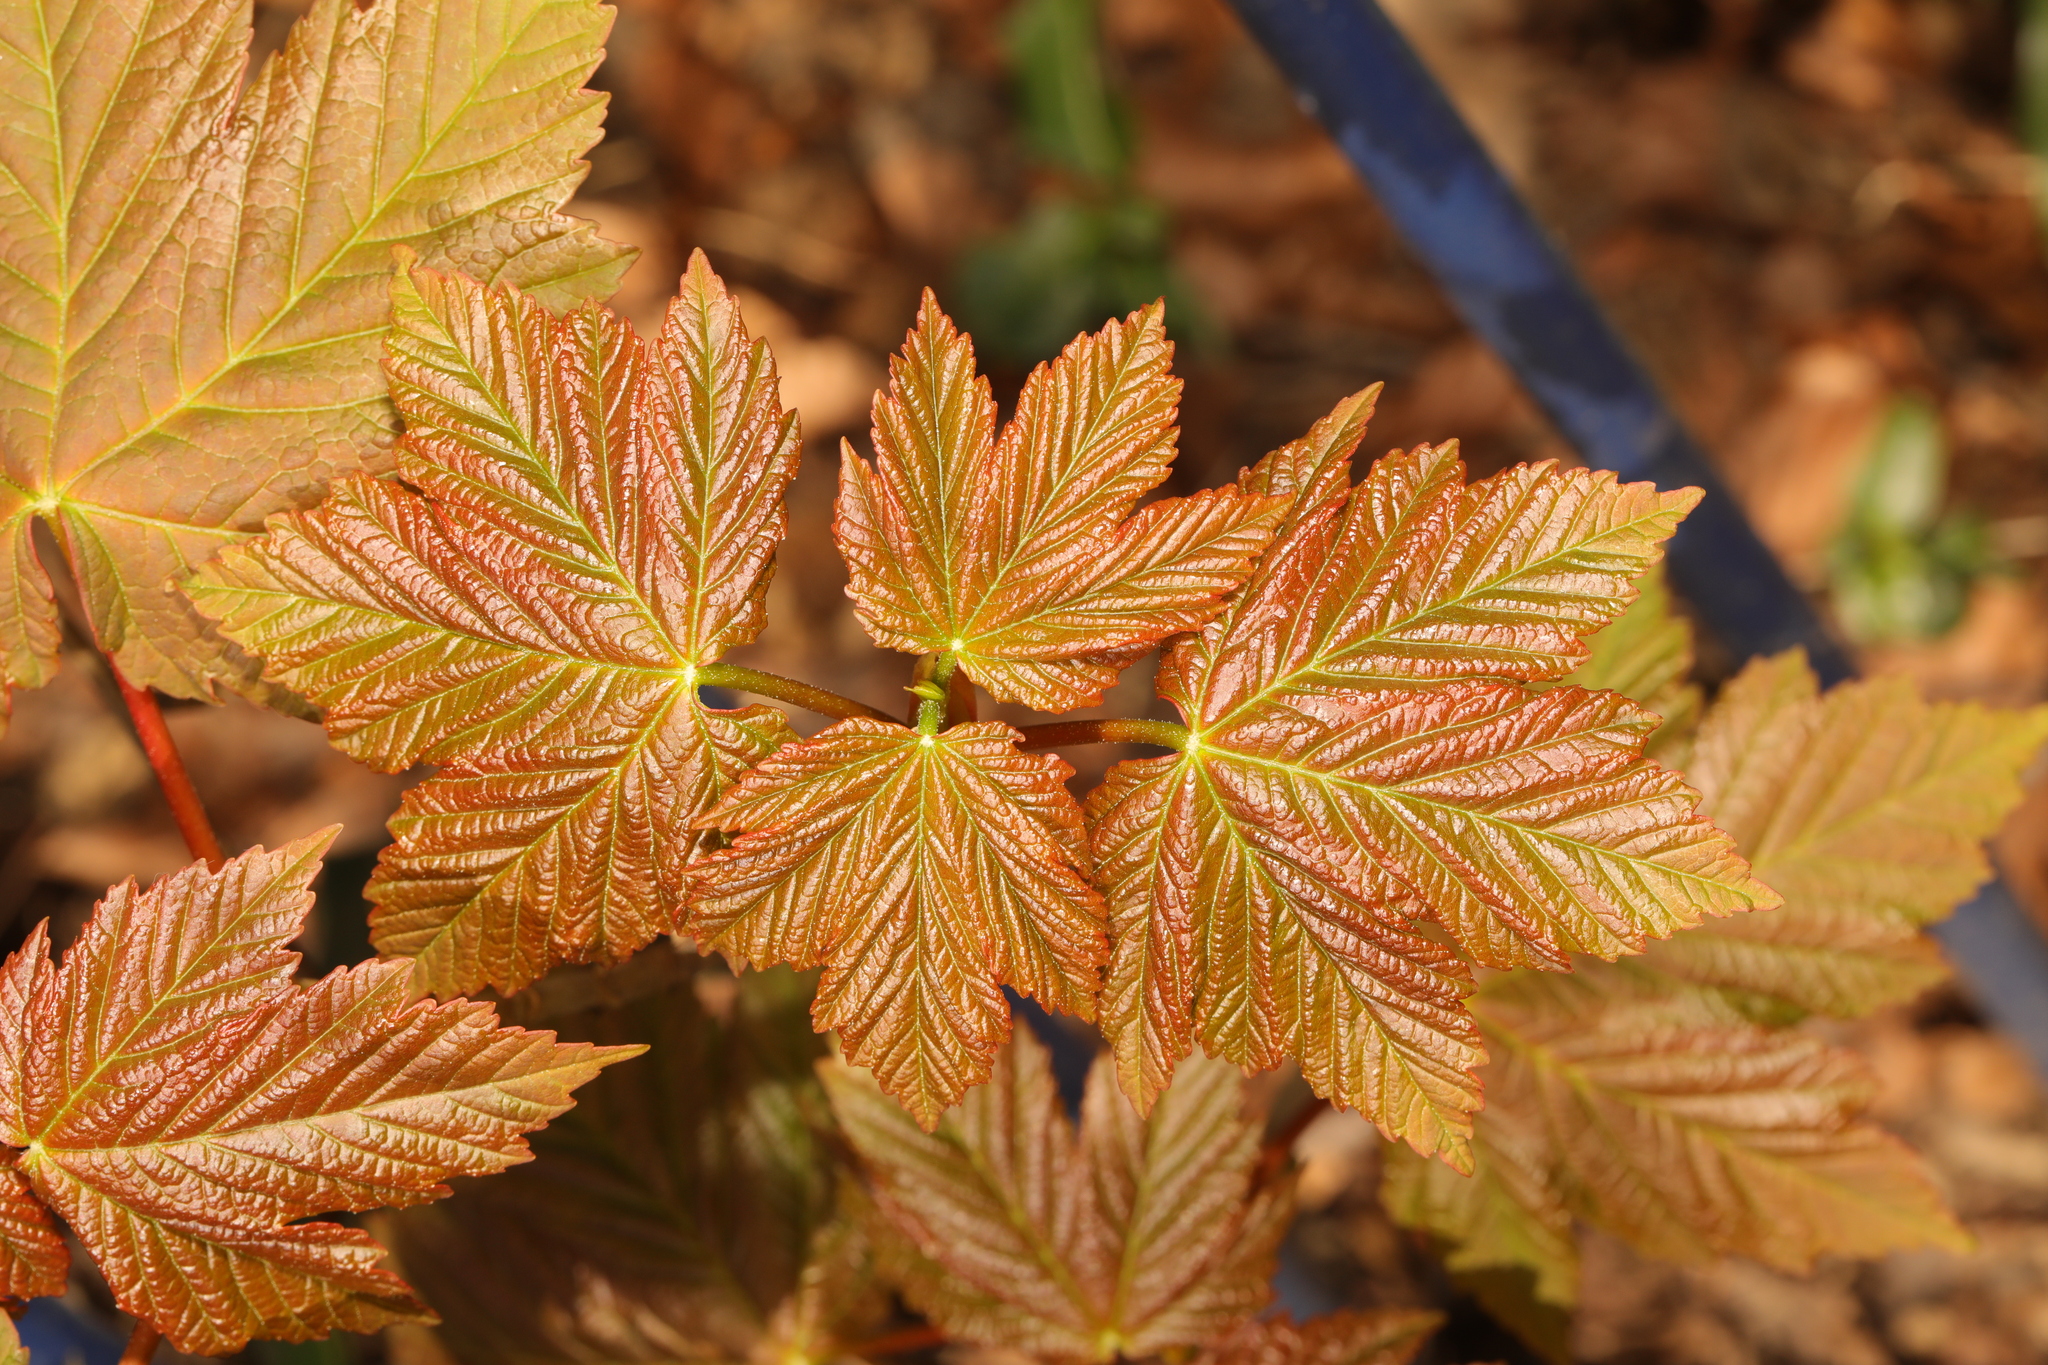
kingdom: Plantae
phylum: Tracheophyta
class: Magnoliopsida
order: Sapindales
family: Sapindaceae
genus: Acer
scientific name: Acer pseudoplatanus
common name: Sycamore
